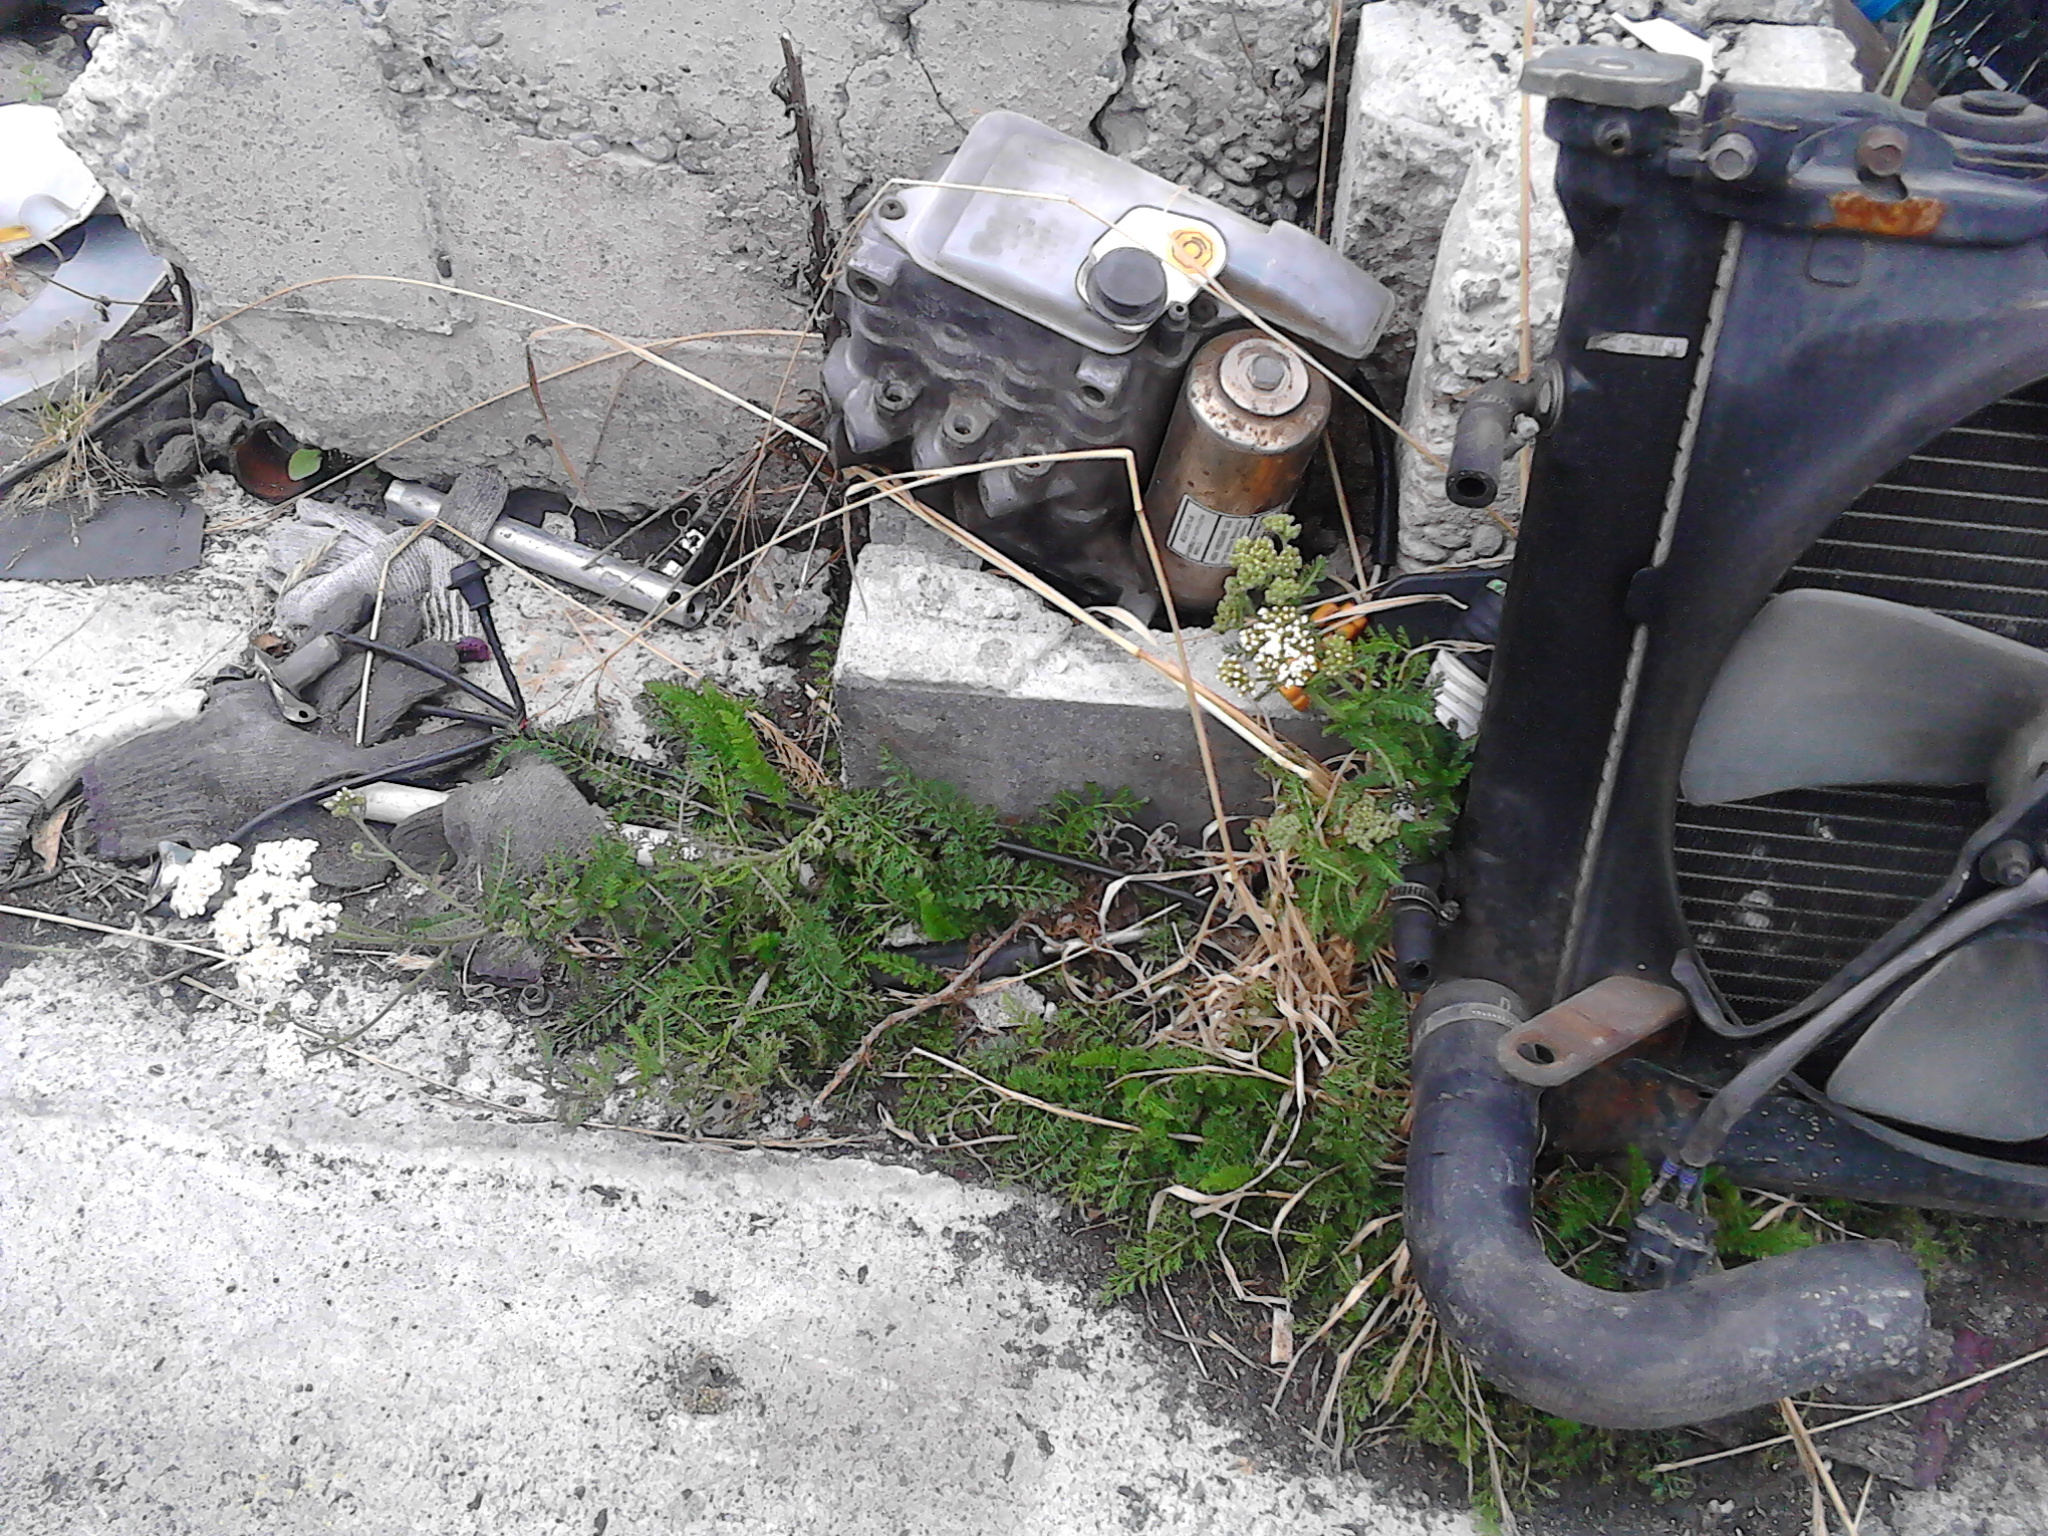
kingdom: Plantae
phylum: Tracheophyta
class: Magnoliopsida
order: Asterales
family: Asteraceae
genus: Achillea
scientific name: Achillea millefolium
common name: Yarrow
